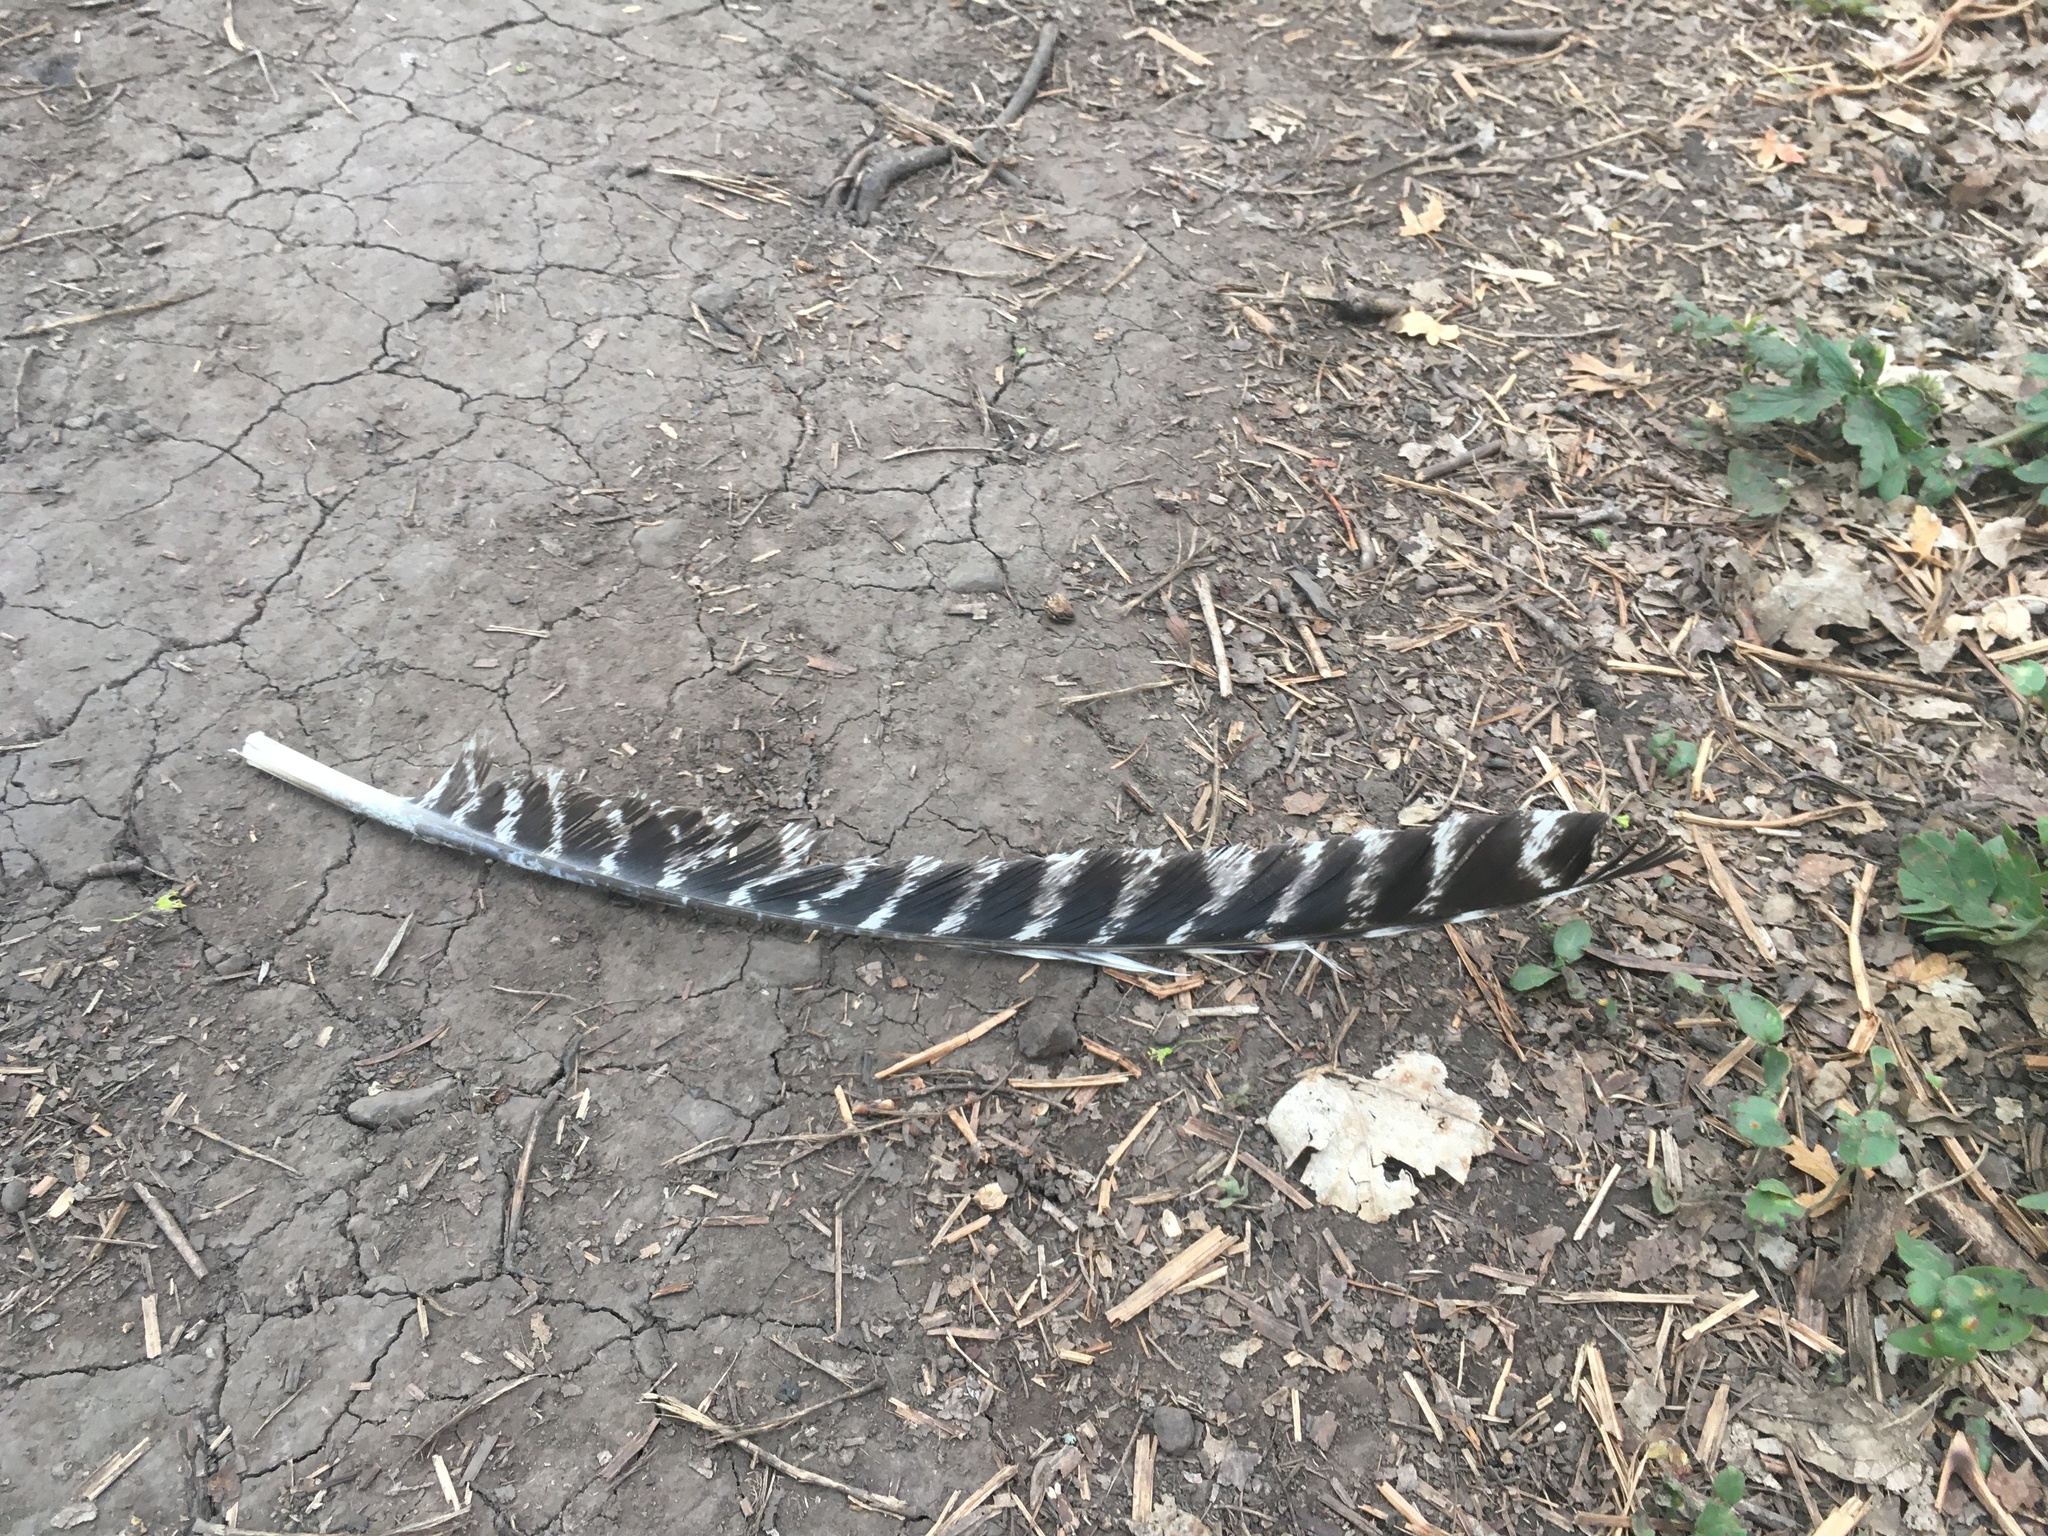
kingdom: Animalia
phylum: Chordata
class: Aves
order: Galliformes
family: Phasianidae
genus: Meleagris
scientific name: Meleagris gallopavo
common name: Wild turkey
